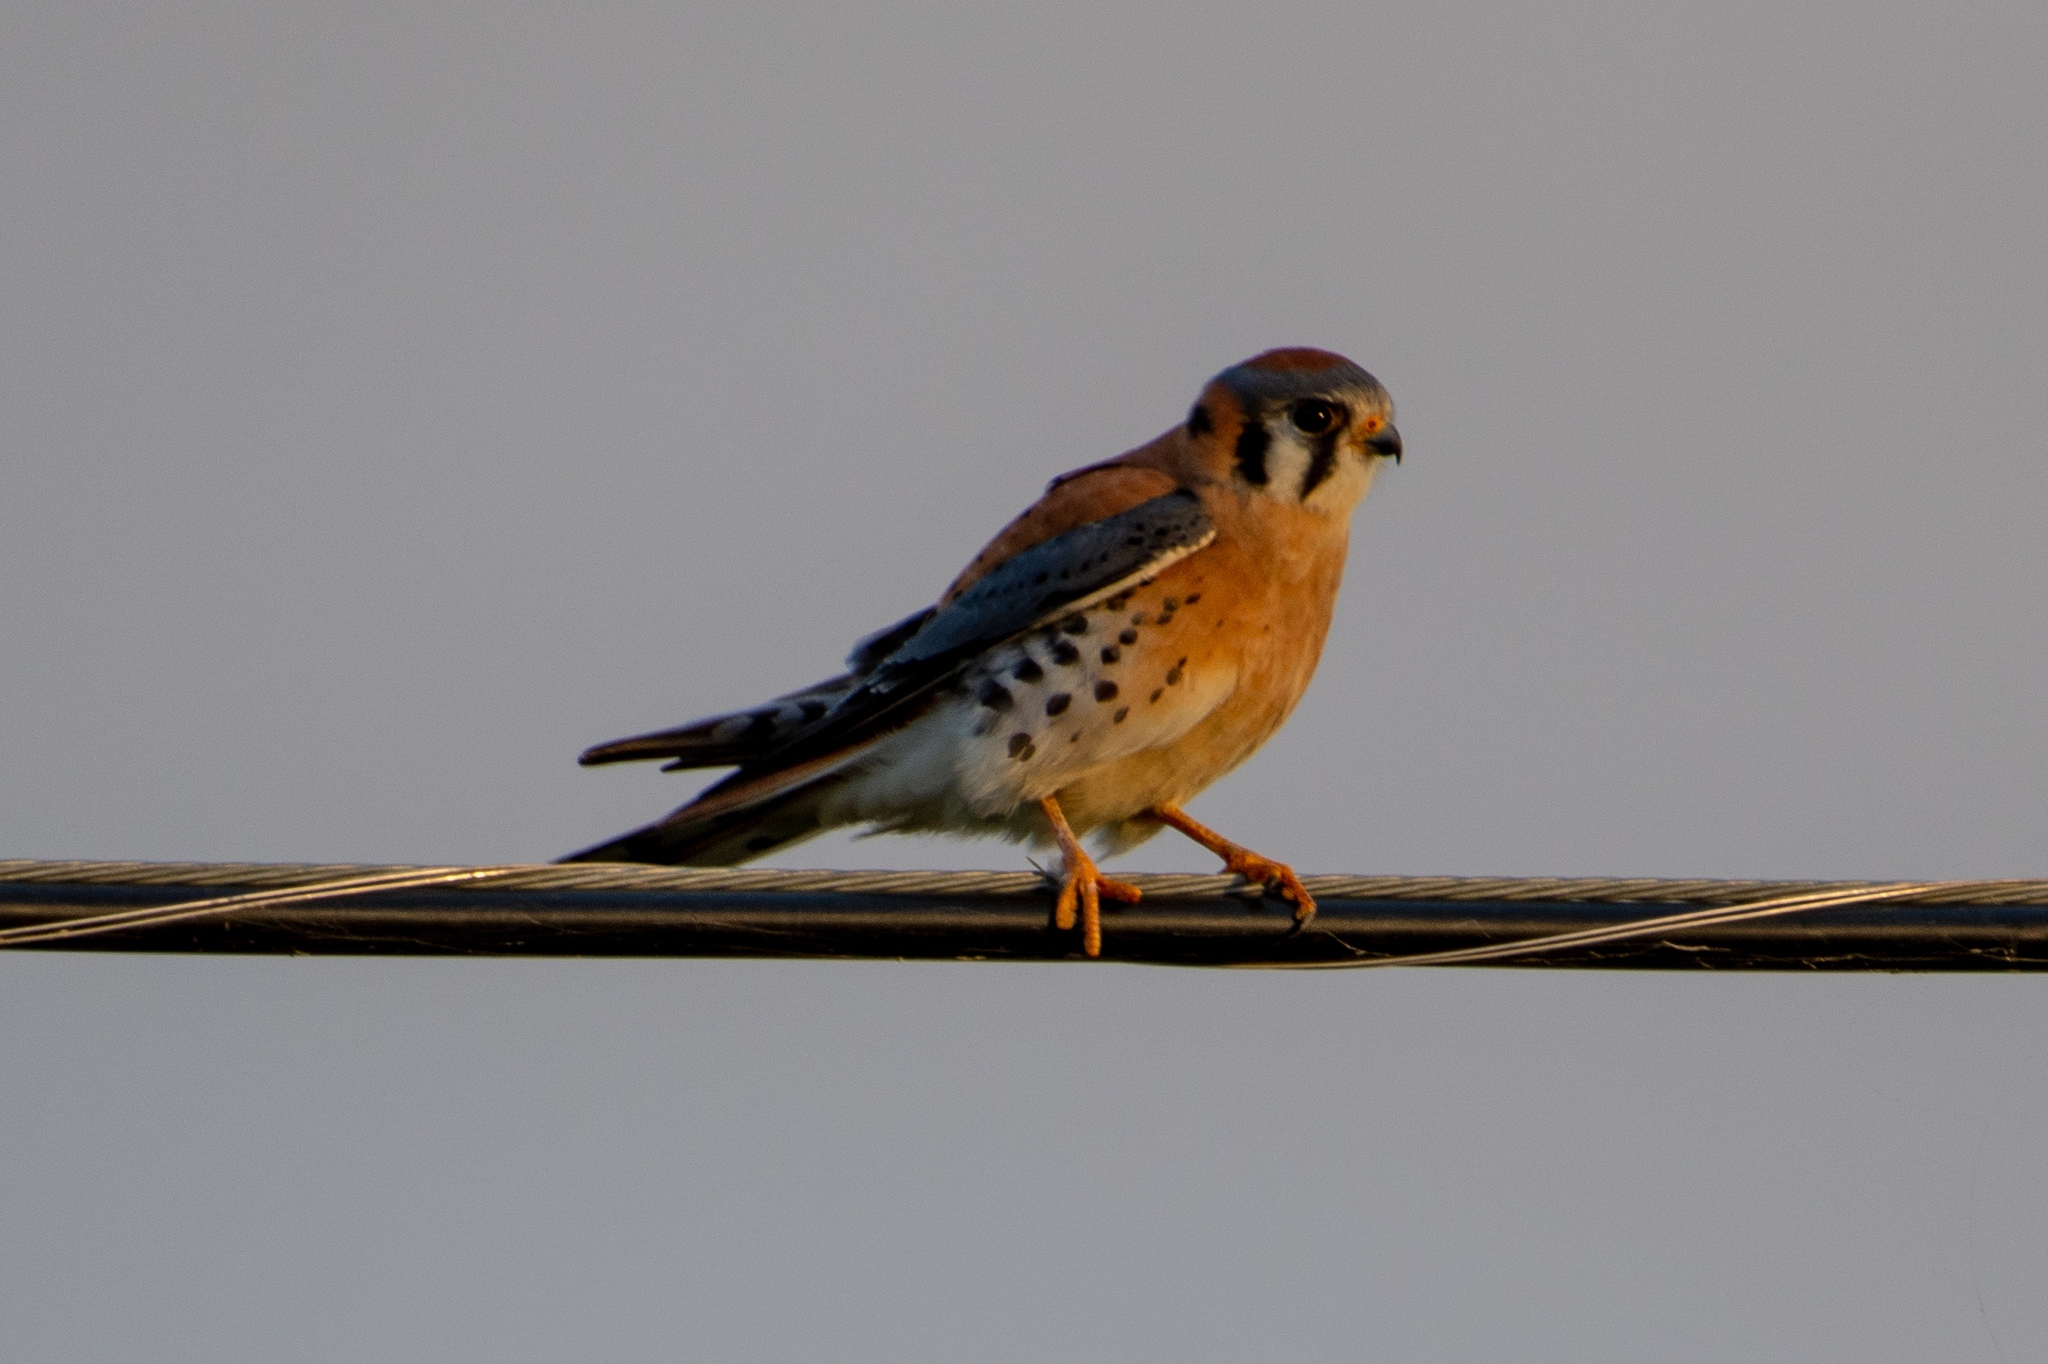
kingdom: Animalia
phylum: Chordata
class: Aves
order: Falconiformes
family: Falconidae
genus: Falco
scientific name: Falco sparverius
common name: American kestrel
